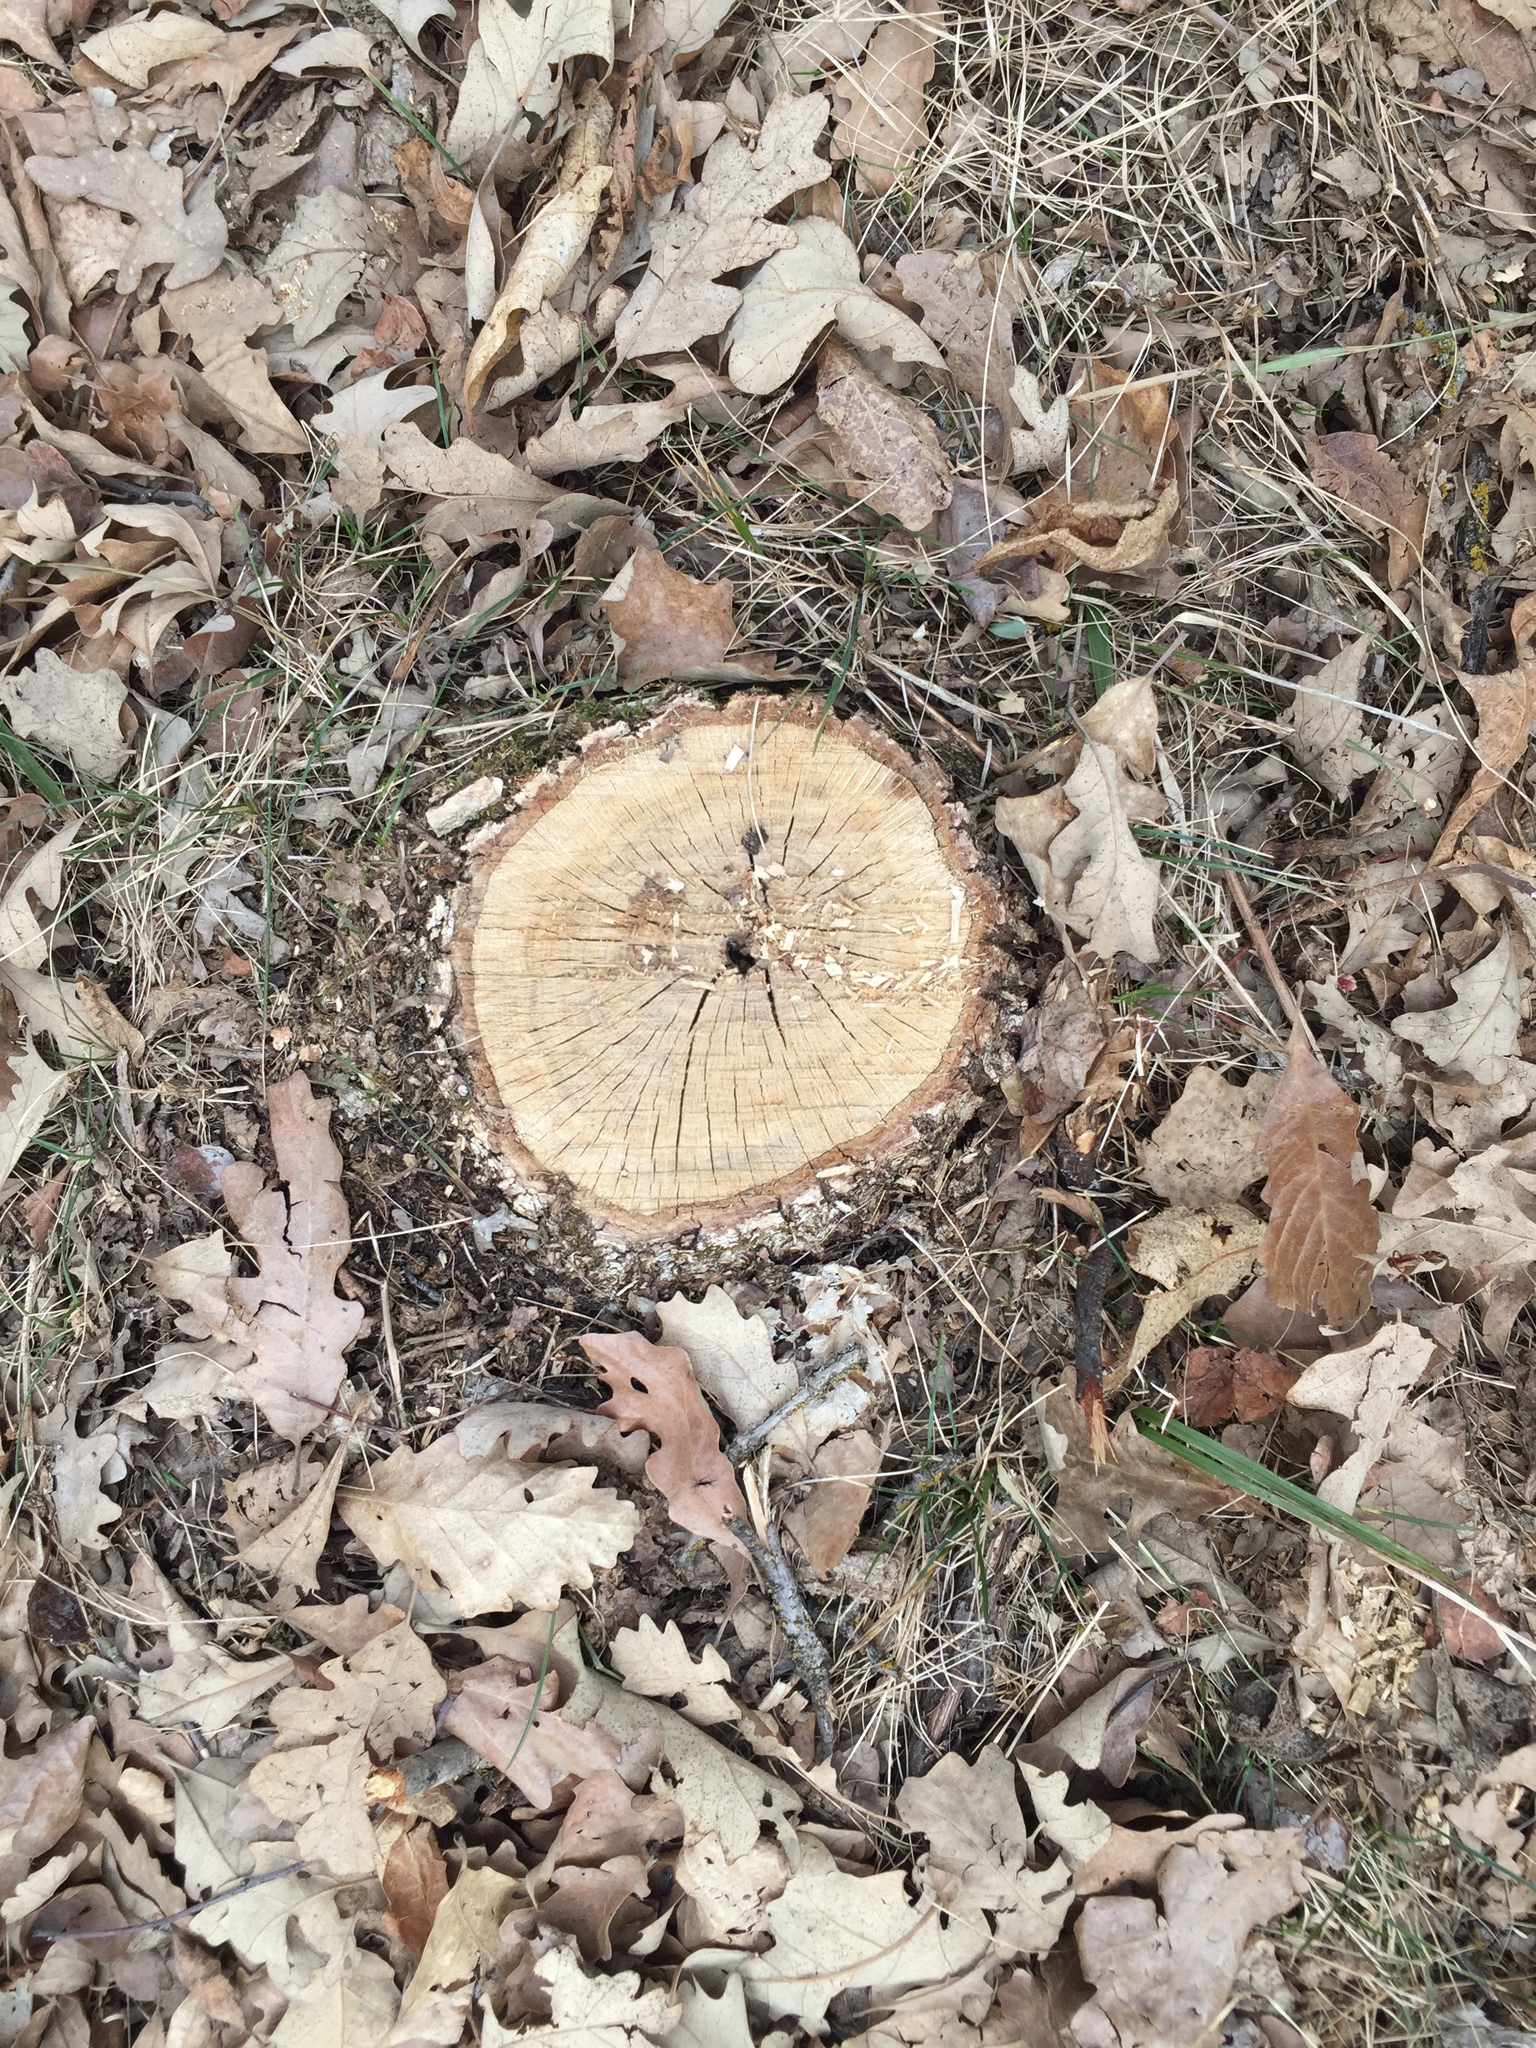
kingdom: Plantae
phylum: Tracheophyta
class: Magnoliopsida
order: Fagales
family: Fagaceae
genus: Quercus
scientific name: Quercus macrocarpa
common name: Bur oak
